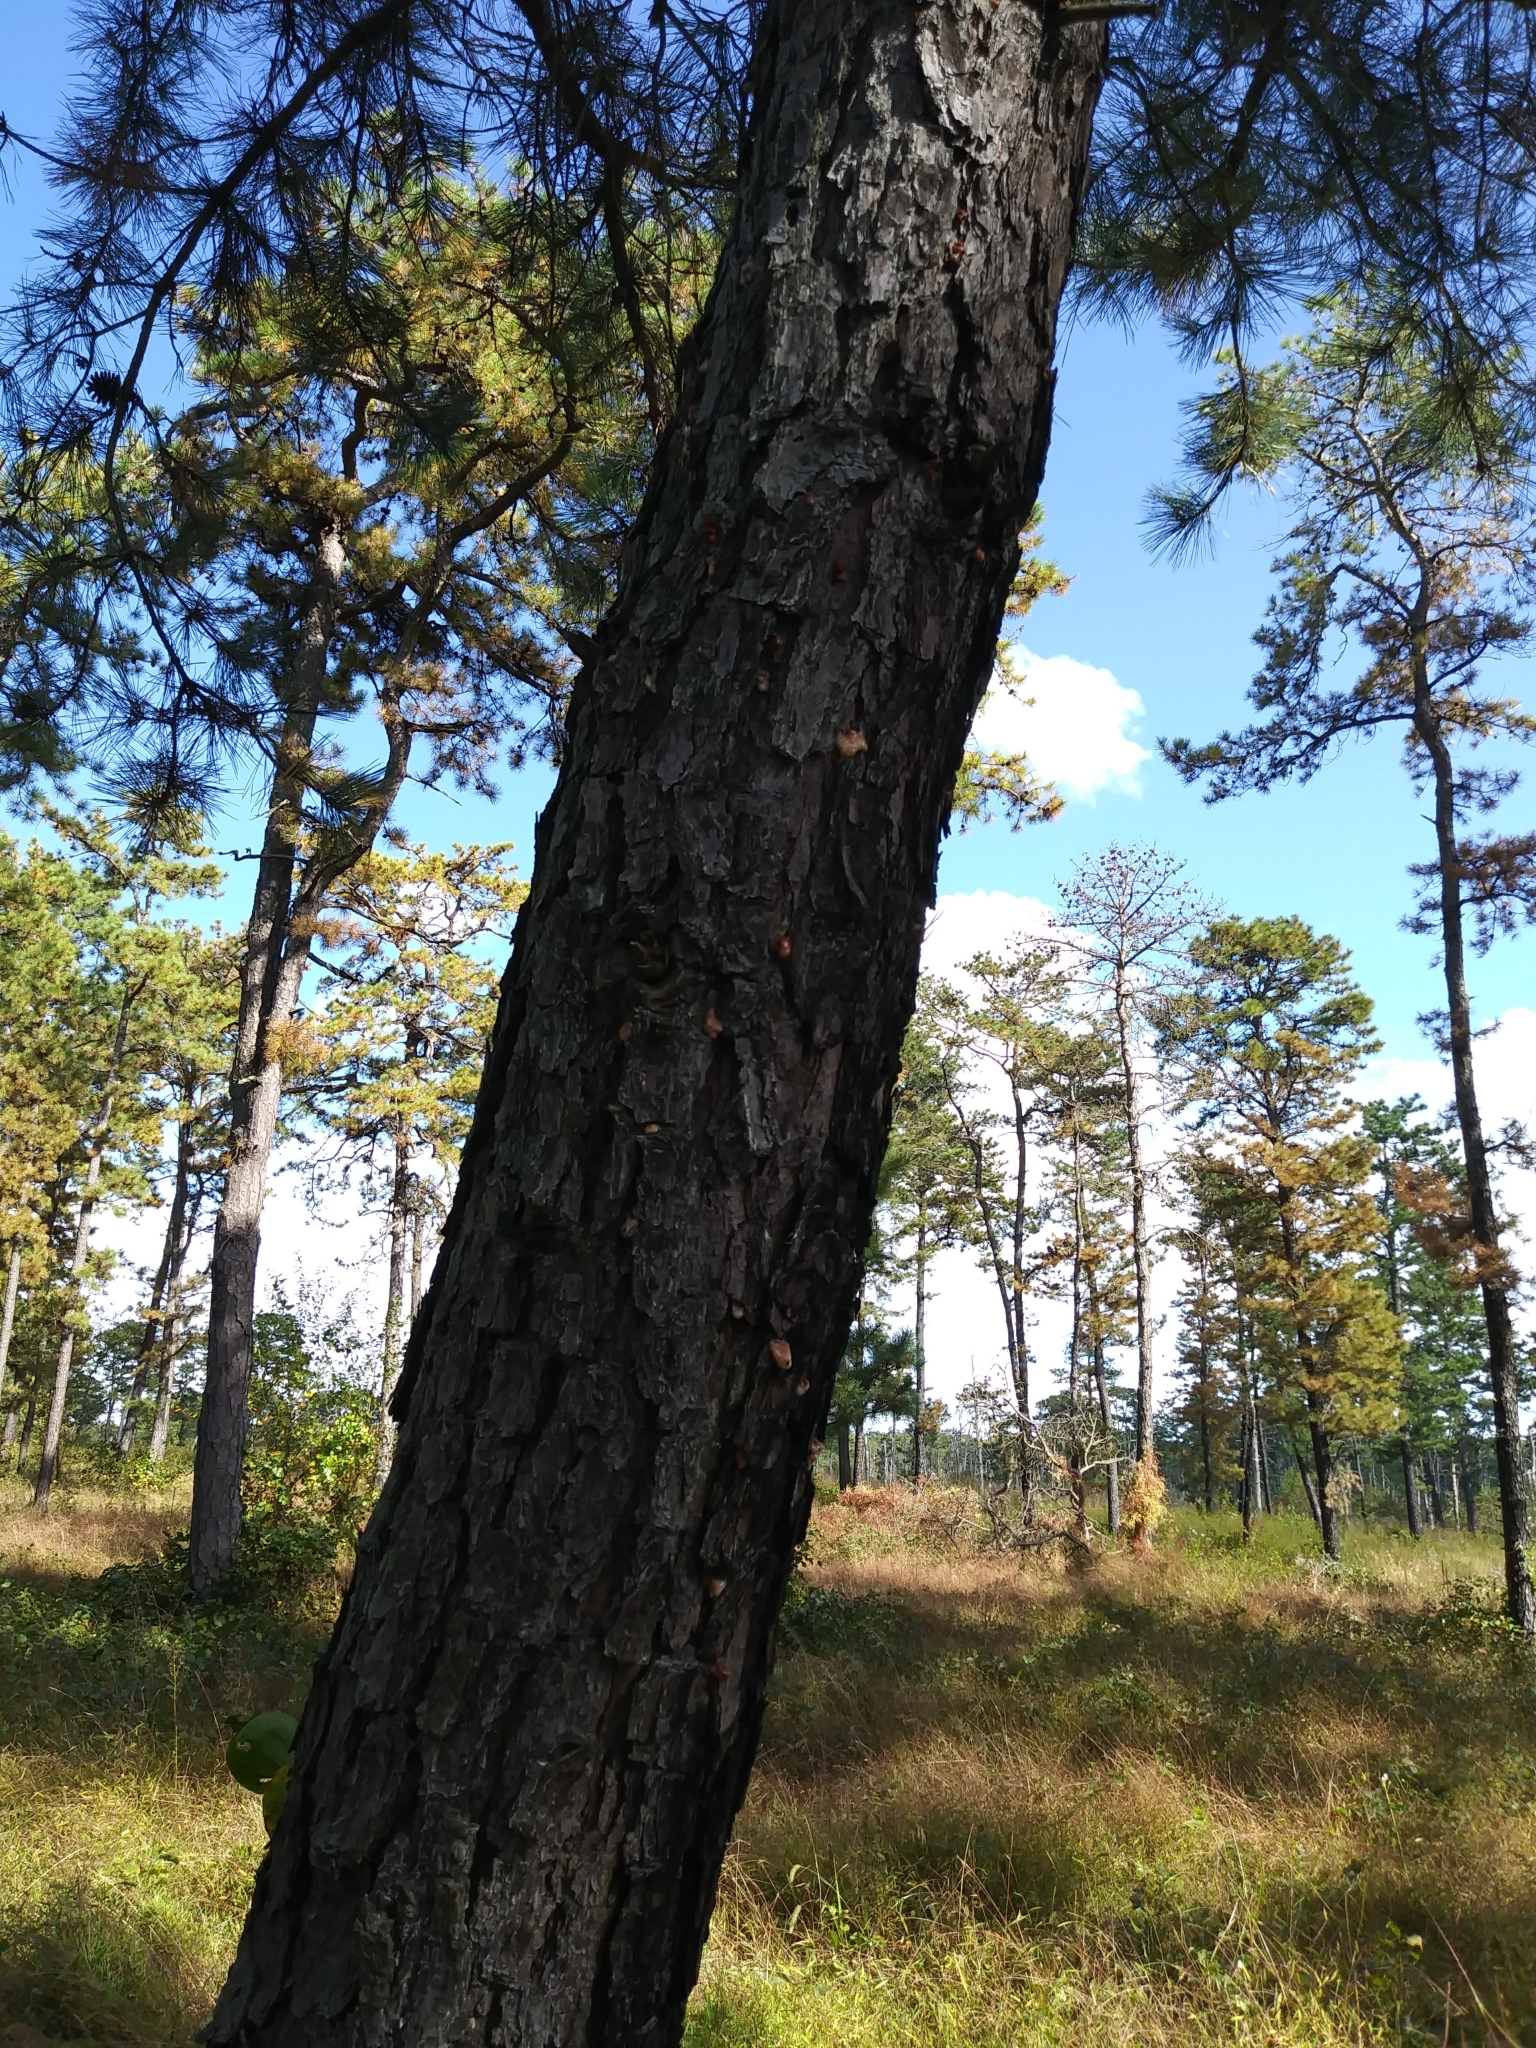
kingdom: Plantae
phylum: Tracheophyta
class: Pinopsida
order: Pinales
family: Pinaceae
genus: Pinus
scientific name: Pinus rigida
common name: Pitch pine
